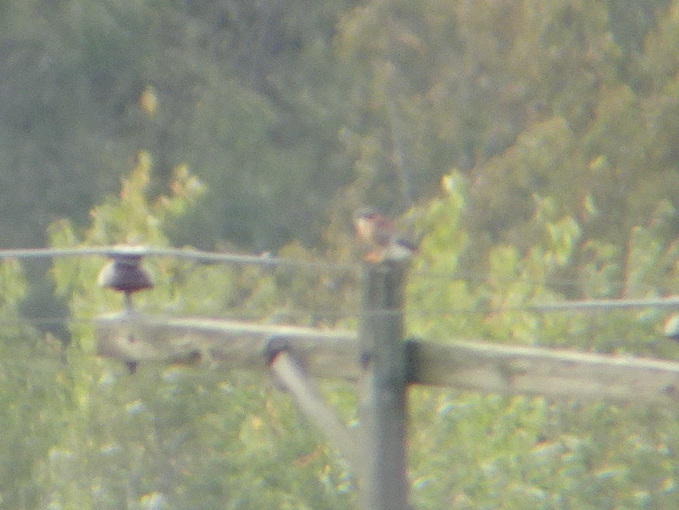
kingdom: Animalia
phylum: Chordata
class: Aves
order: Falconiformes
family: Falconidae
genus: Falco
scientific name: Falco sparverius
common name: American kestrel
